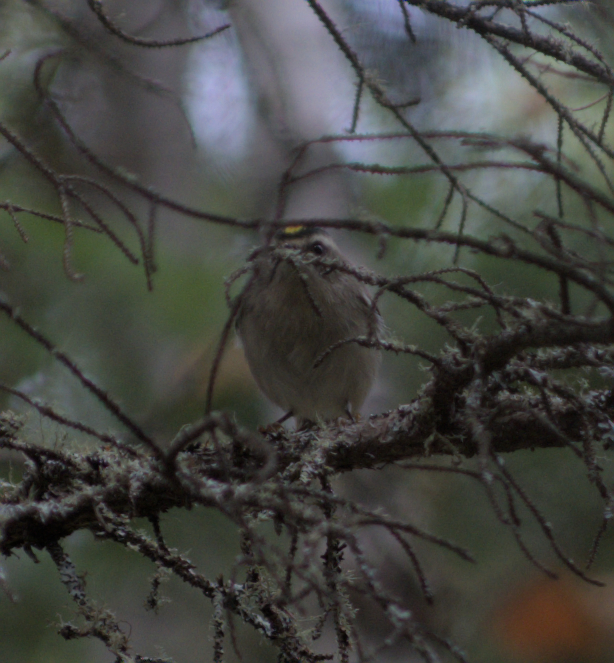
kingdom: Animalia
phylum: Chordata
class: Aves
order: Passeriformes
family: Regulidae
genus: Regulus
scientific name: Regulus satrapa
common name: Golden-crowned kinglet
